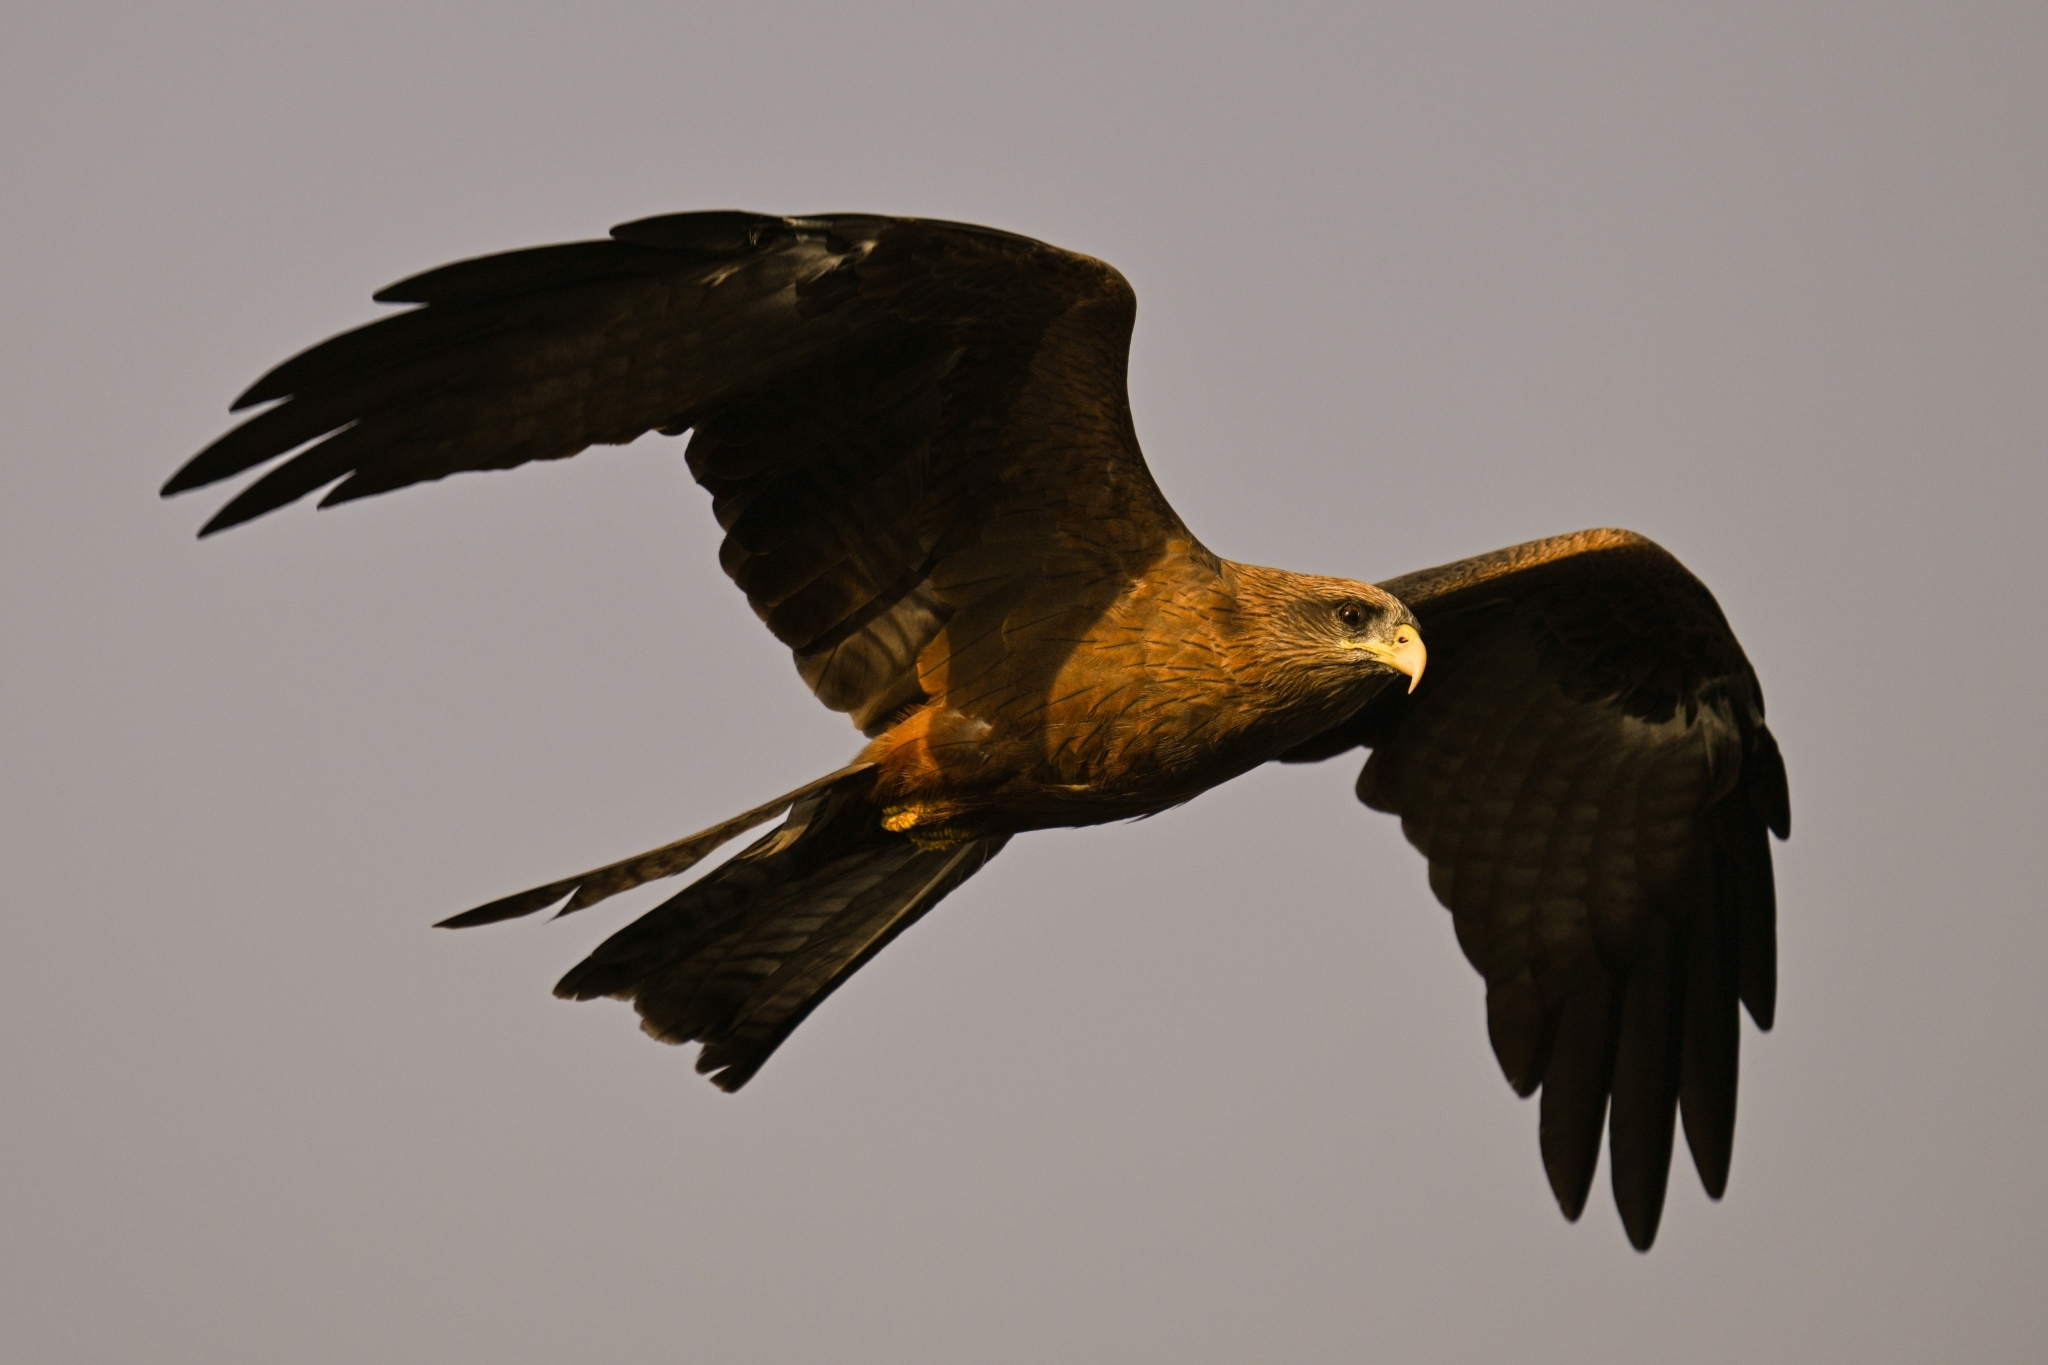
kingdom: Animalia
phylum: Chordata
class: Aves
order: Accipitriformes
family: Accipitridae
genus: Milvus
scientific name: Milvus migrans
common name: Black kite
